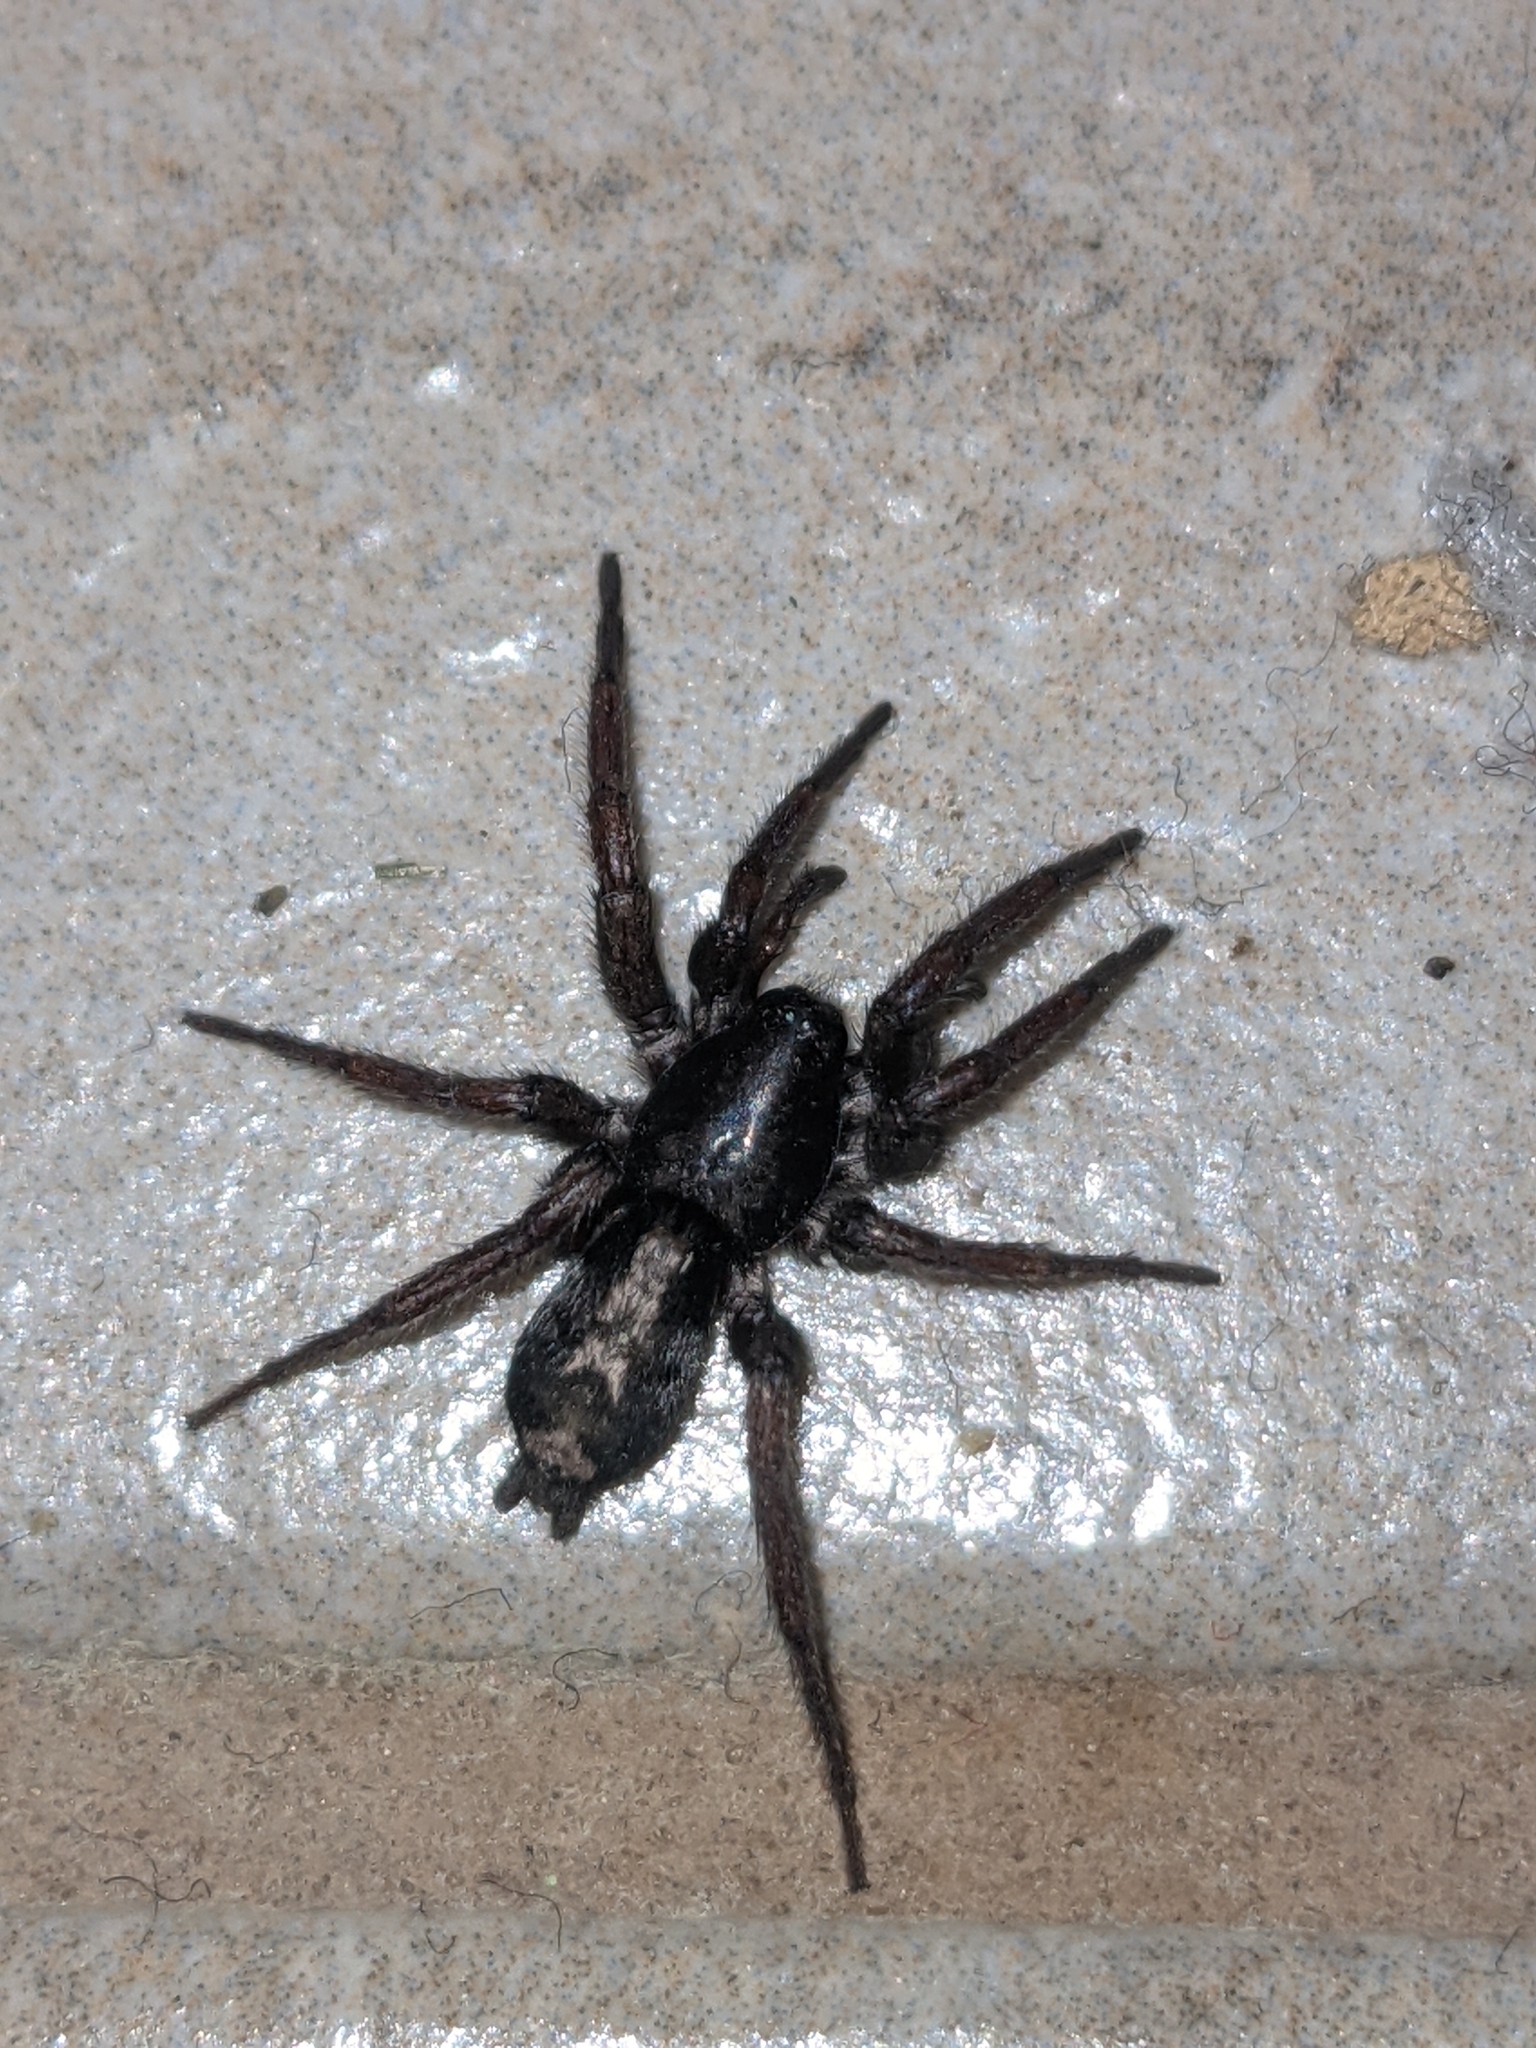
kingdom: Animalia
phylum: Arthropoda
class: Arachnida
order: Araneae
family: Gnaphosidae
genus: Herpyllus
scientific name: Herpyllus ecclesiasticus
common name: Eastern parson spider
